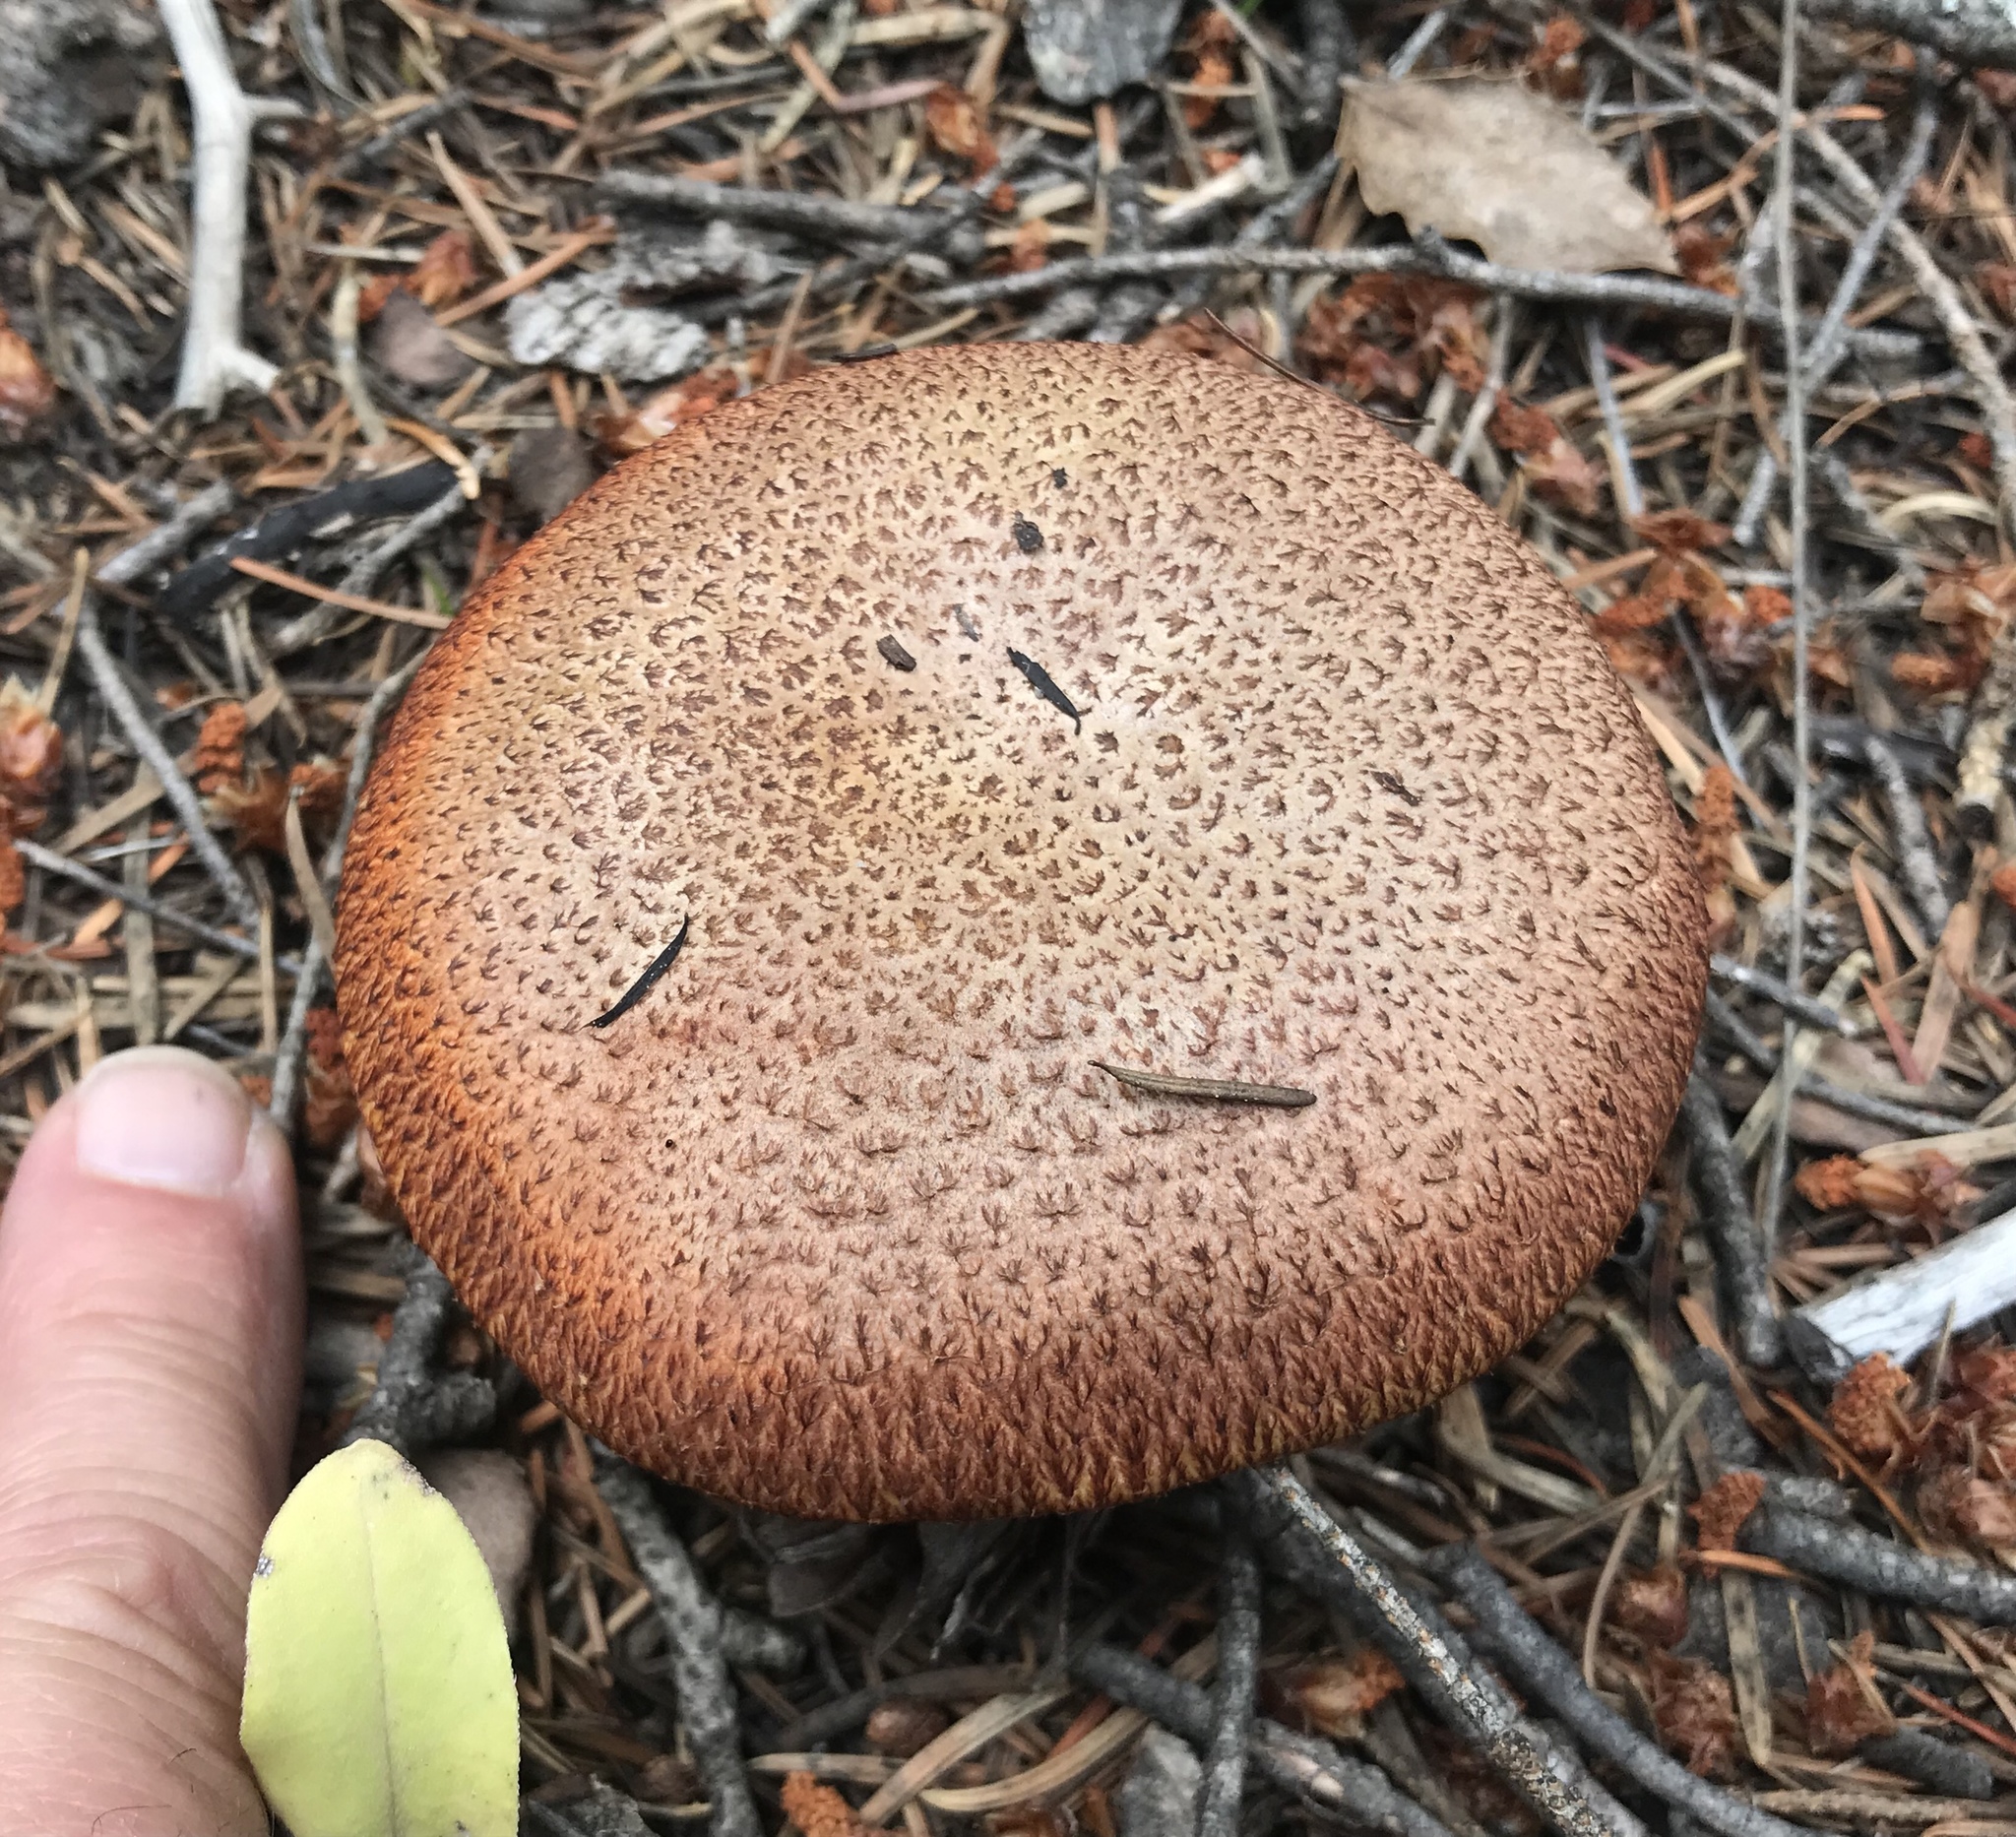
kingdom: Fungi
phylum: Basidiomycota
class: Agaricomycetes
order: Boletales
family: Suillaceae
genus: Suillus
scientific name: Suillus lakei
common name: Western painted suillus
